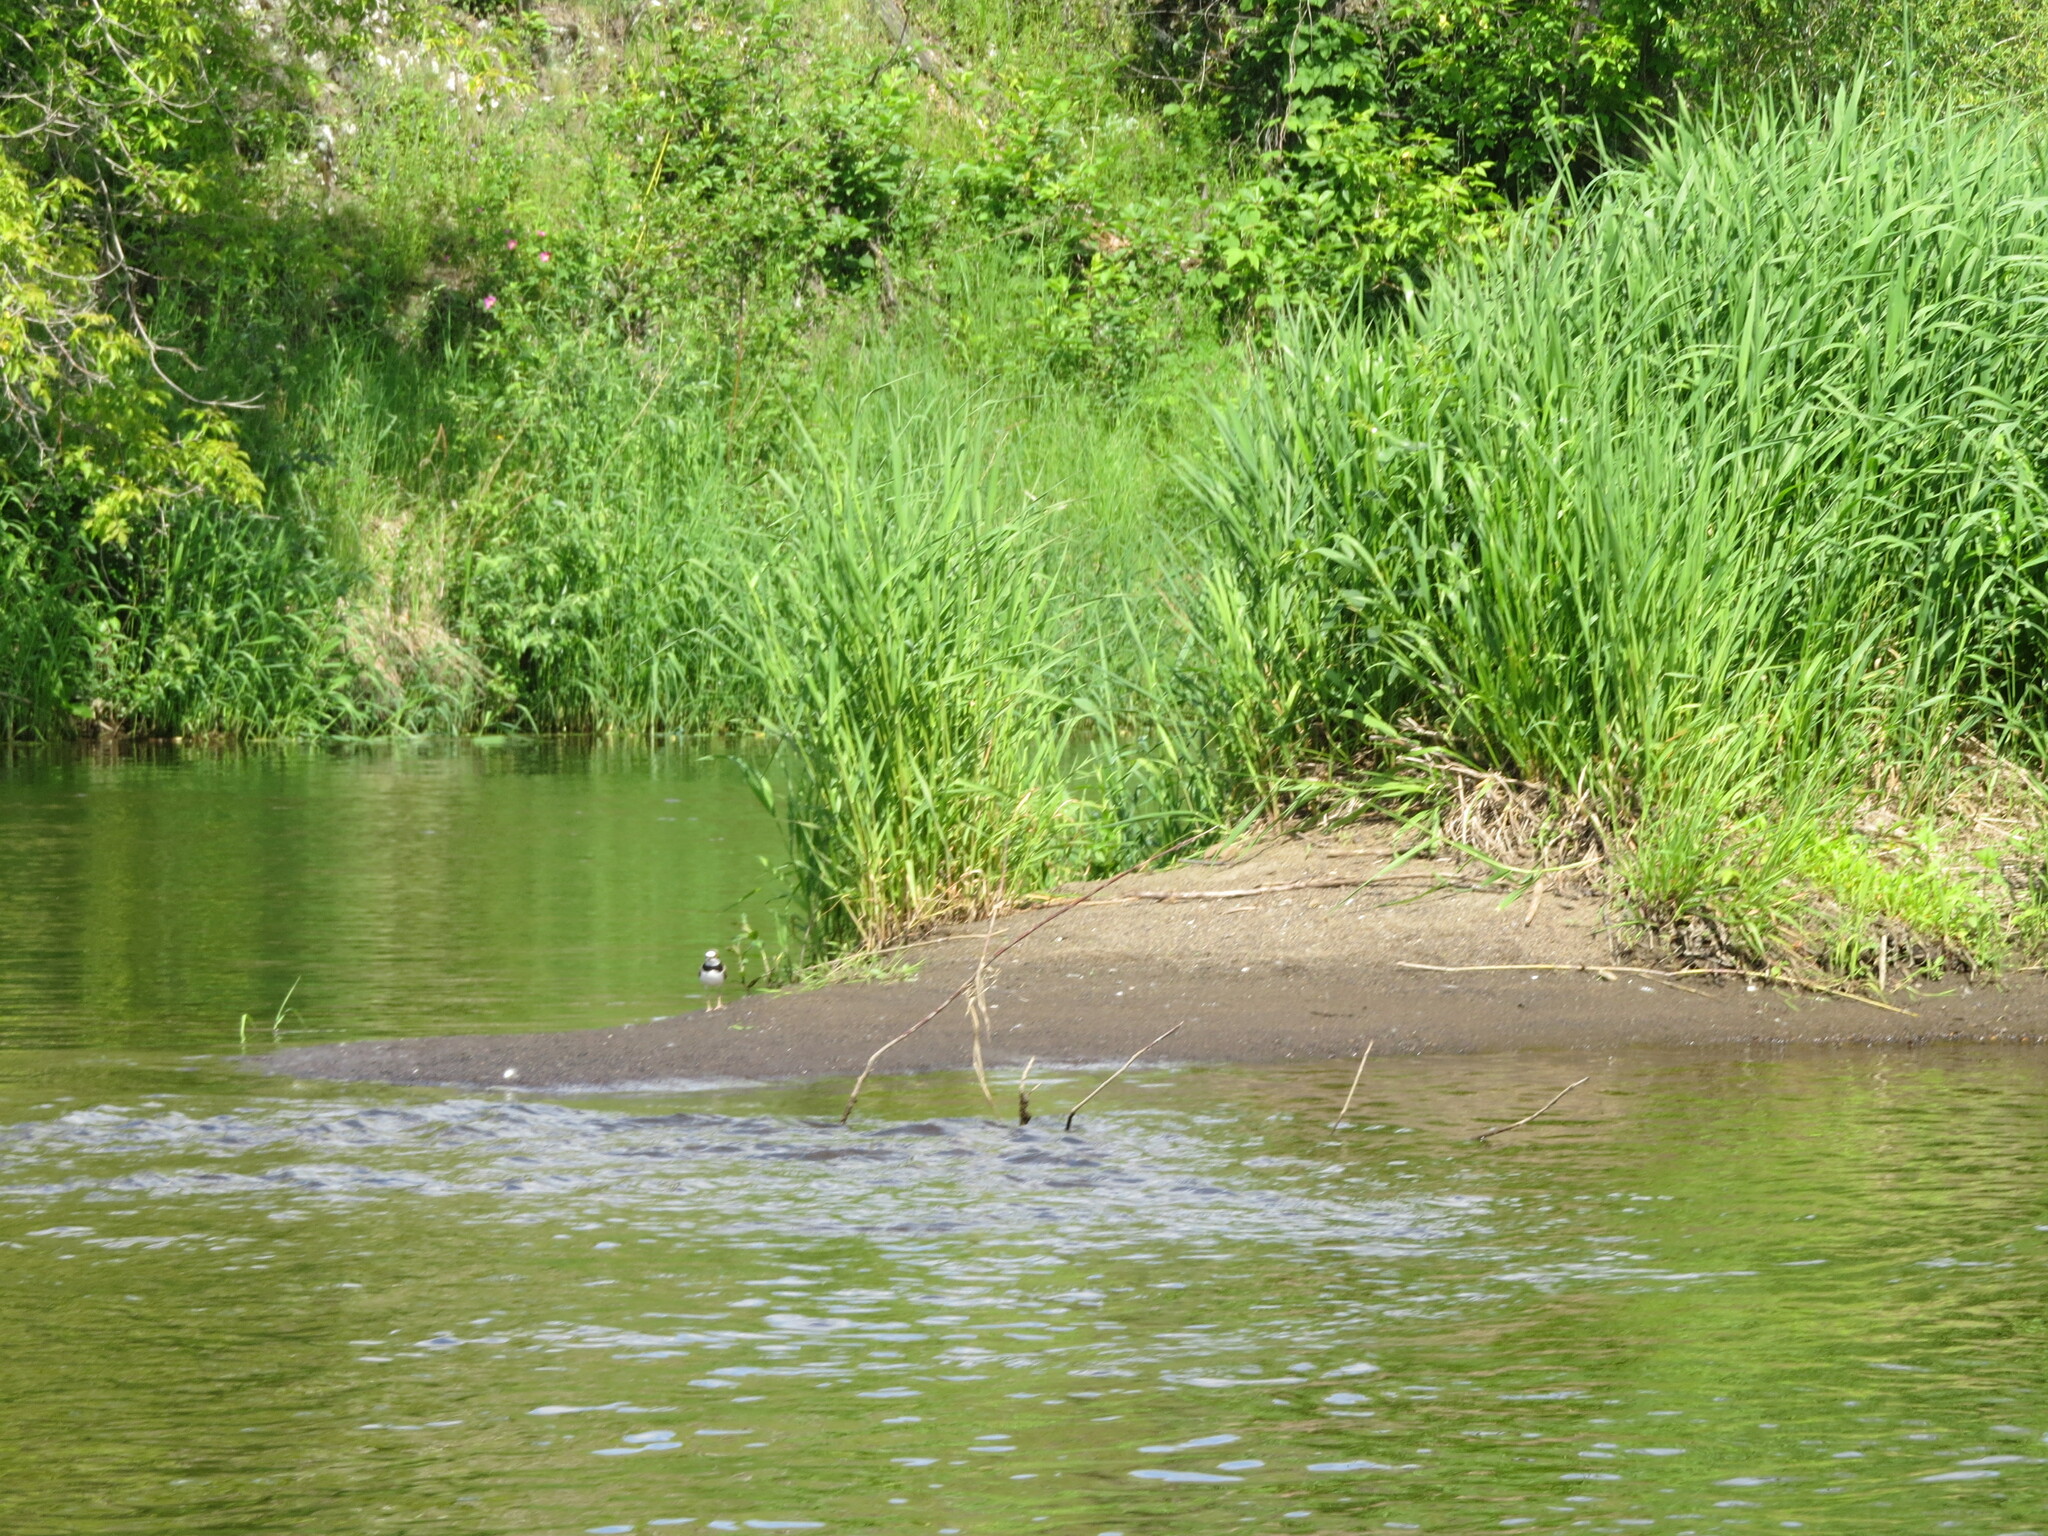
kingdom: Animalia
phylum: Chordata
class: Aves
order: Charadriiformes
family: Charadriidae
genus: Charadrius
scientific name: Charadrius dubius
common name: Little ringed plover
